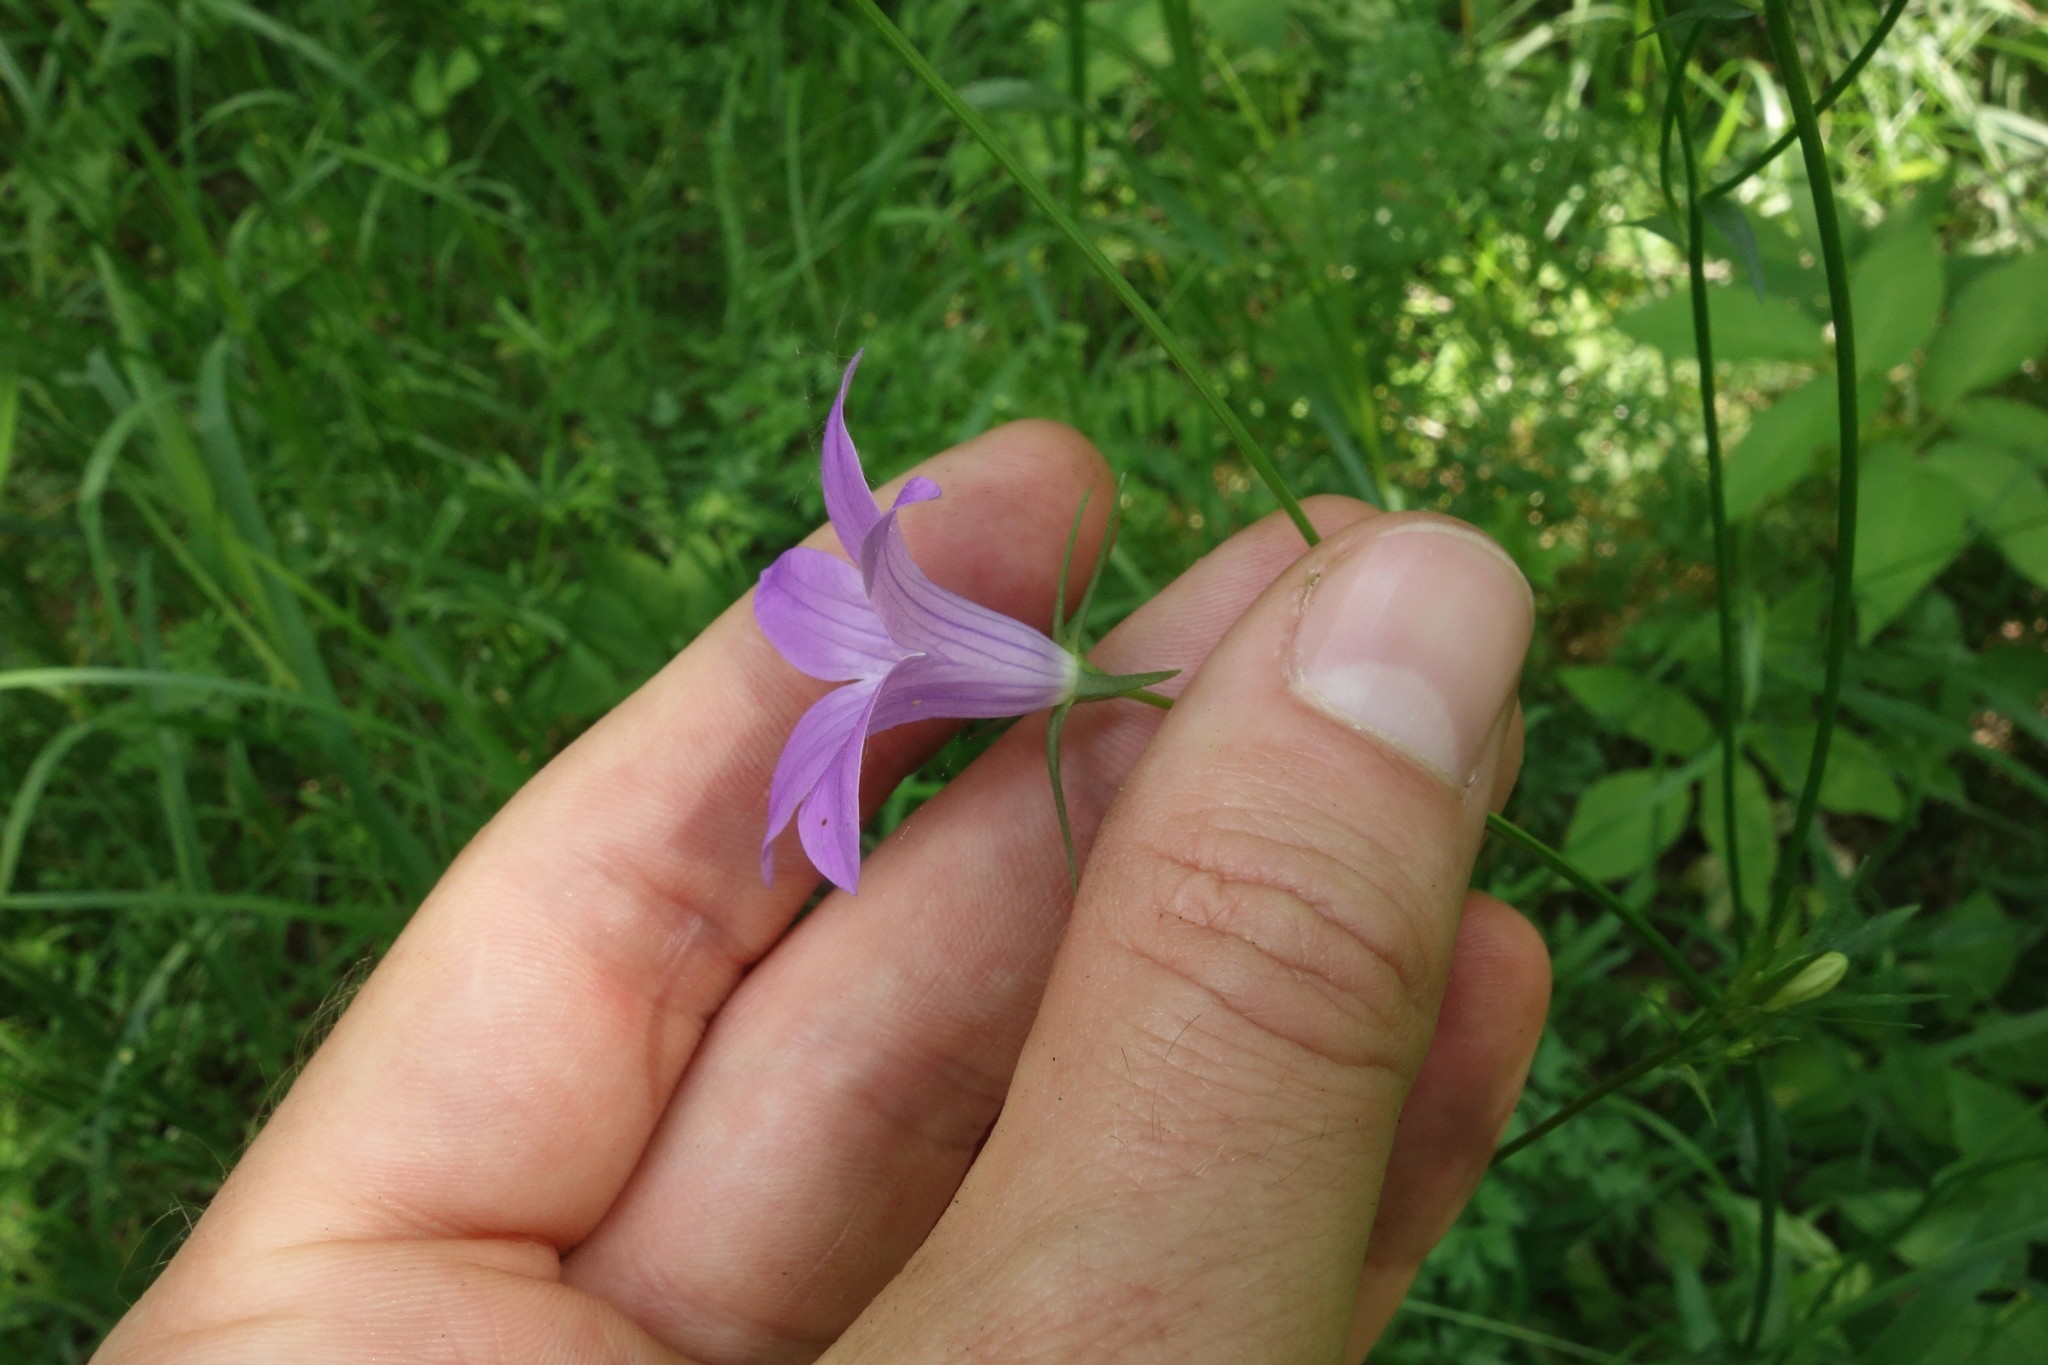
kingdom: Plantae
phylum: Tracheophyta
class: Magnoliopsida
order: Asterales
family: Campanulaceae
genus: Campanula
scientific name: Campanula patula
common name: Spreading bellflower
